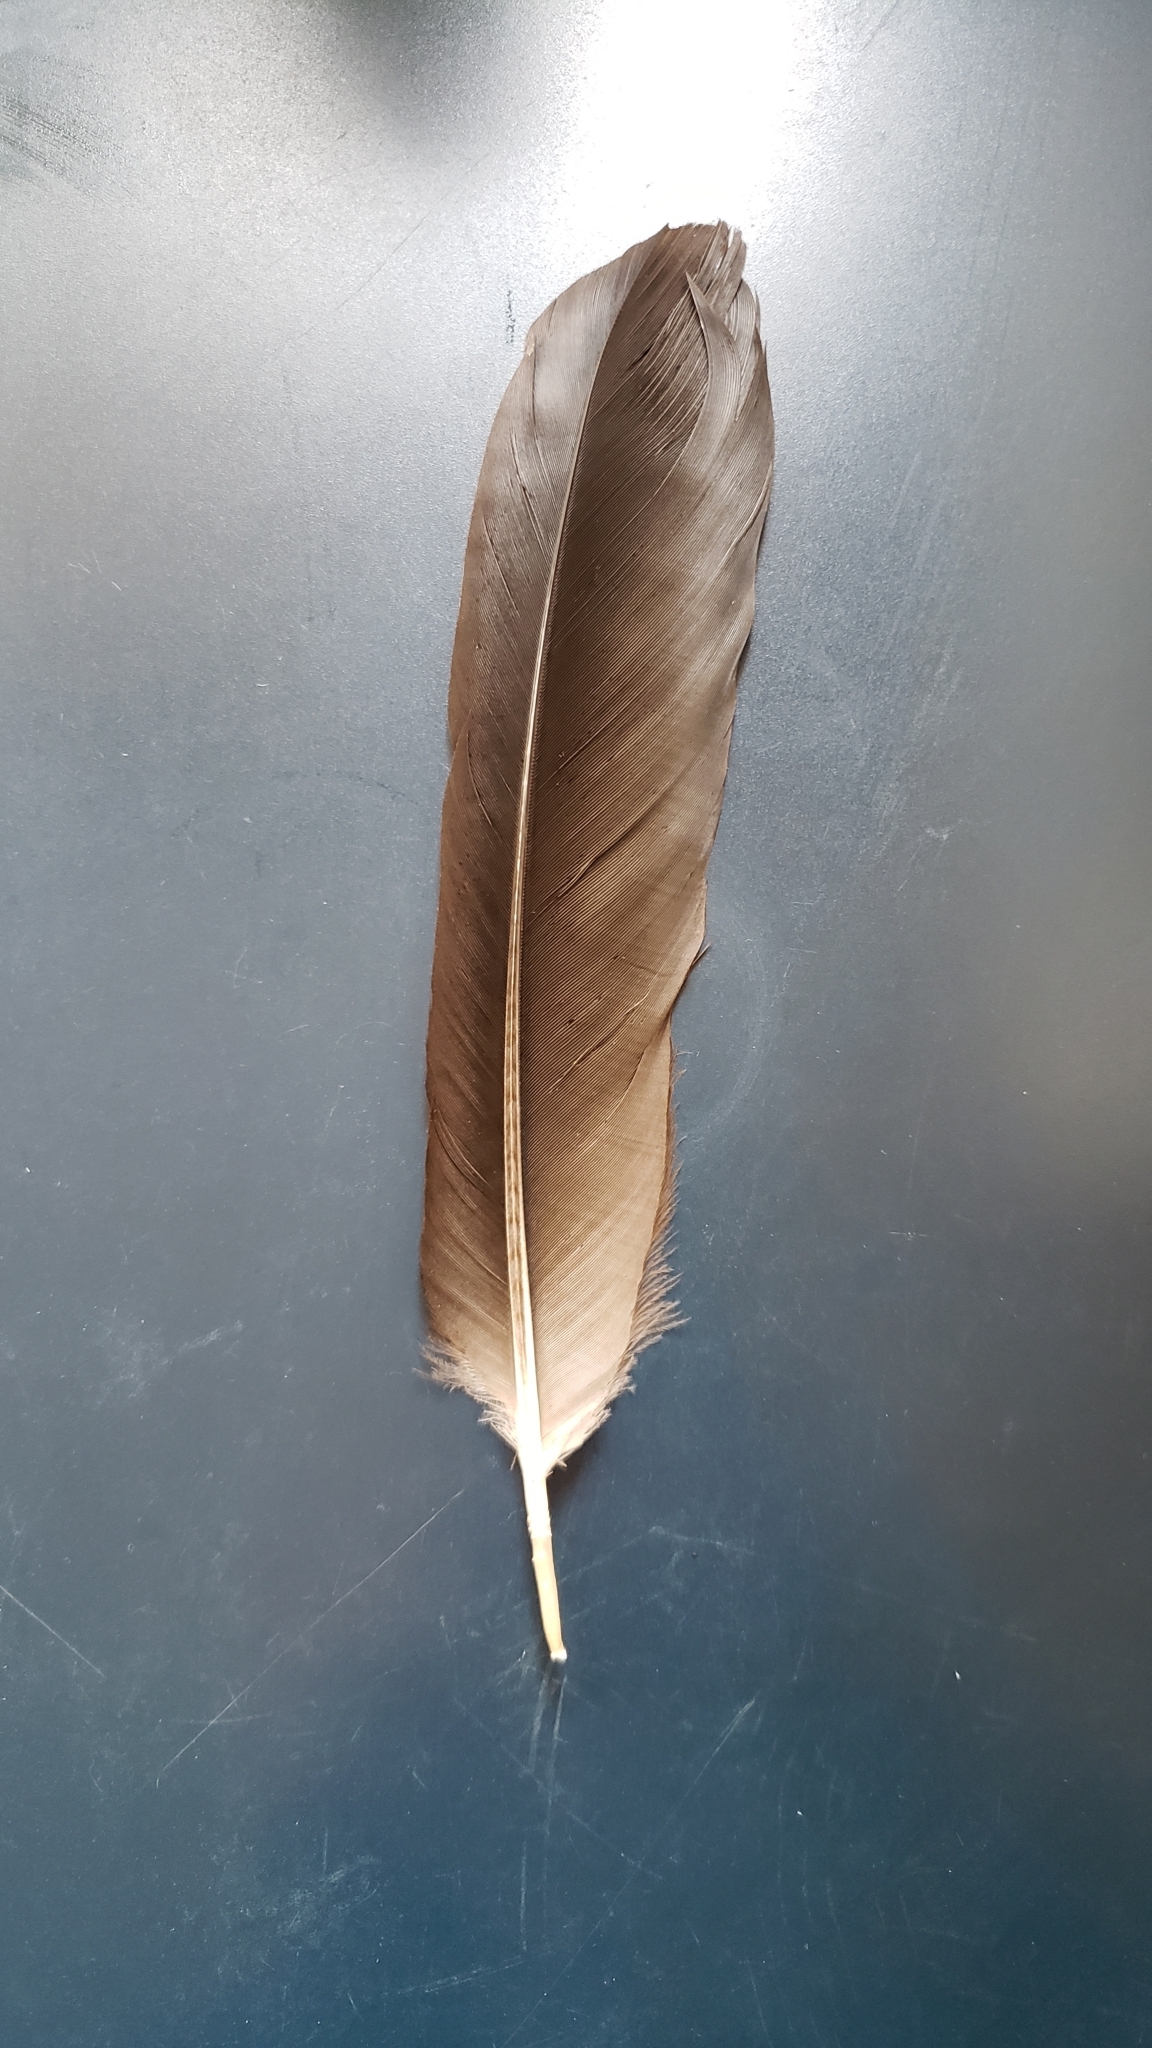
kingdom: Animalia
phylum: Chordata
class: Aves
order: Passeriformes
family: Corvidae
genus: Corvus
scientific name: Corvus corax
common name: Common raven
